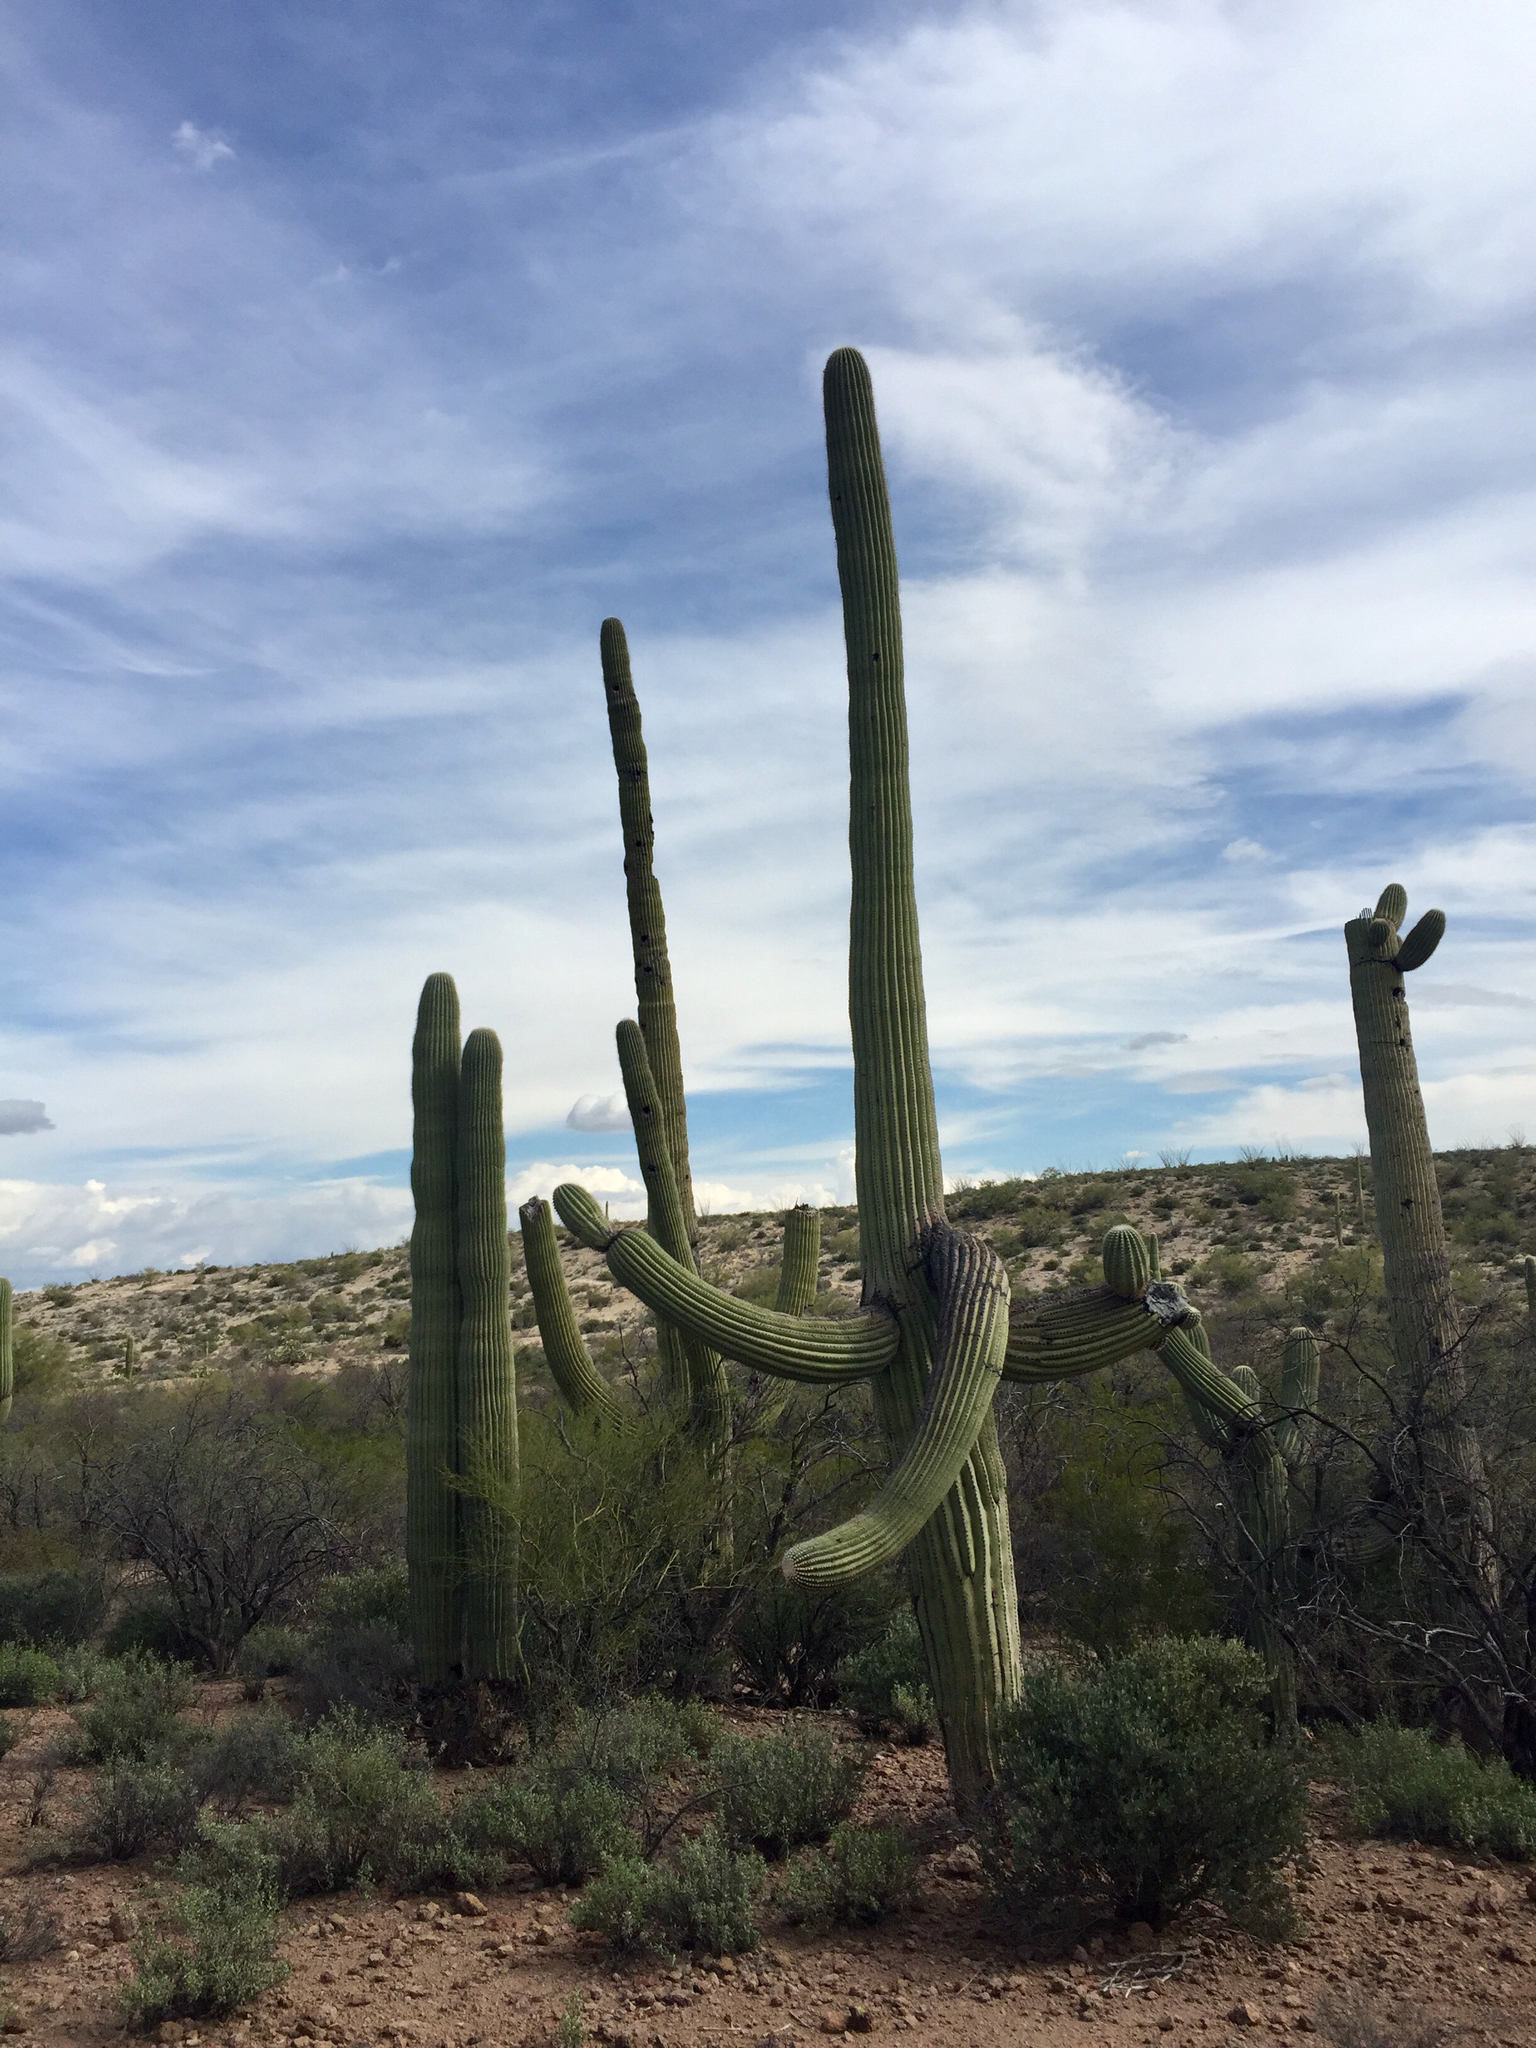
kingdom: Plantae
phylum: Tracheophyta
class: Magnoliopsida
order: Caryophyllales
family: Cactaceae
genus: Carnegiea
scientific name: Carnegiea gigantea
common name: Saguaro
